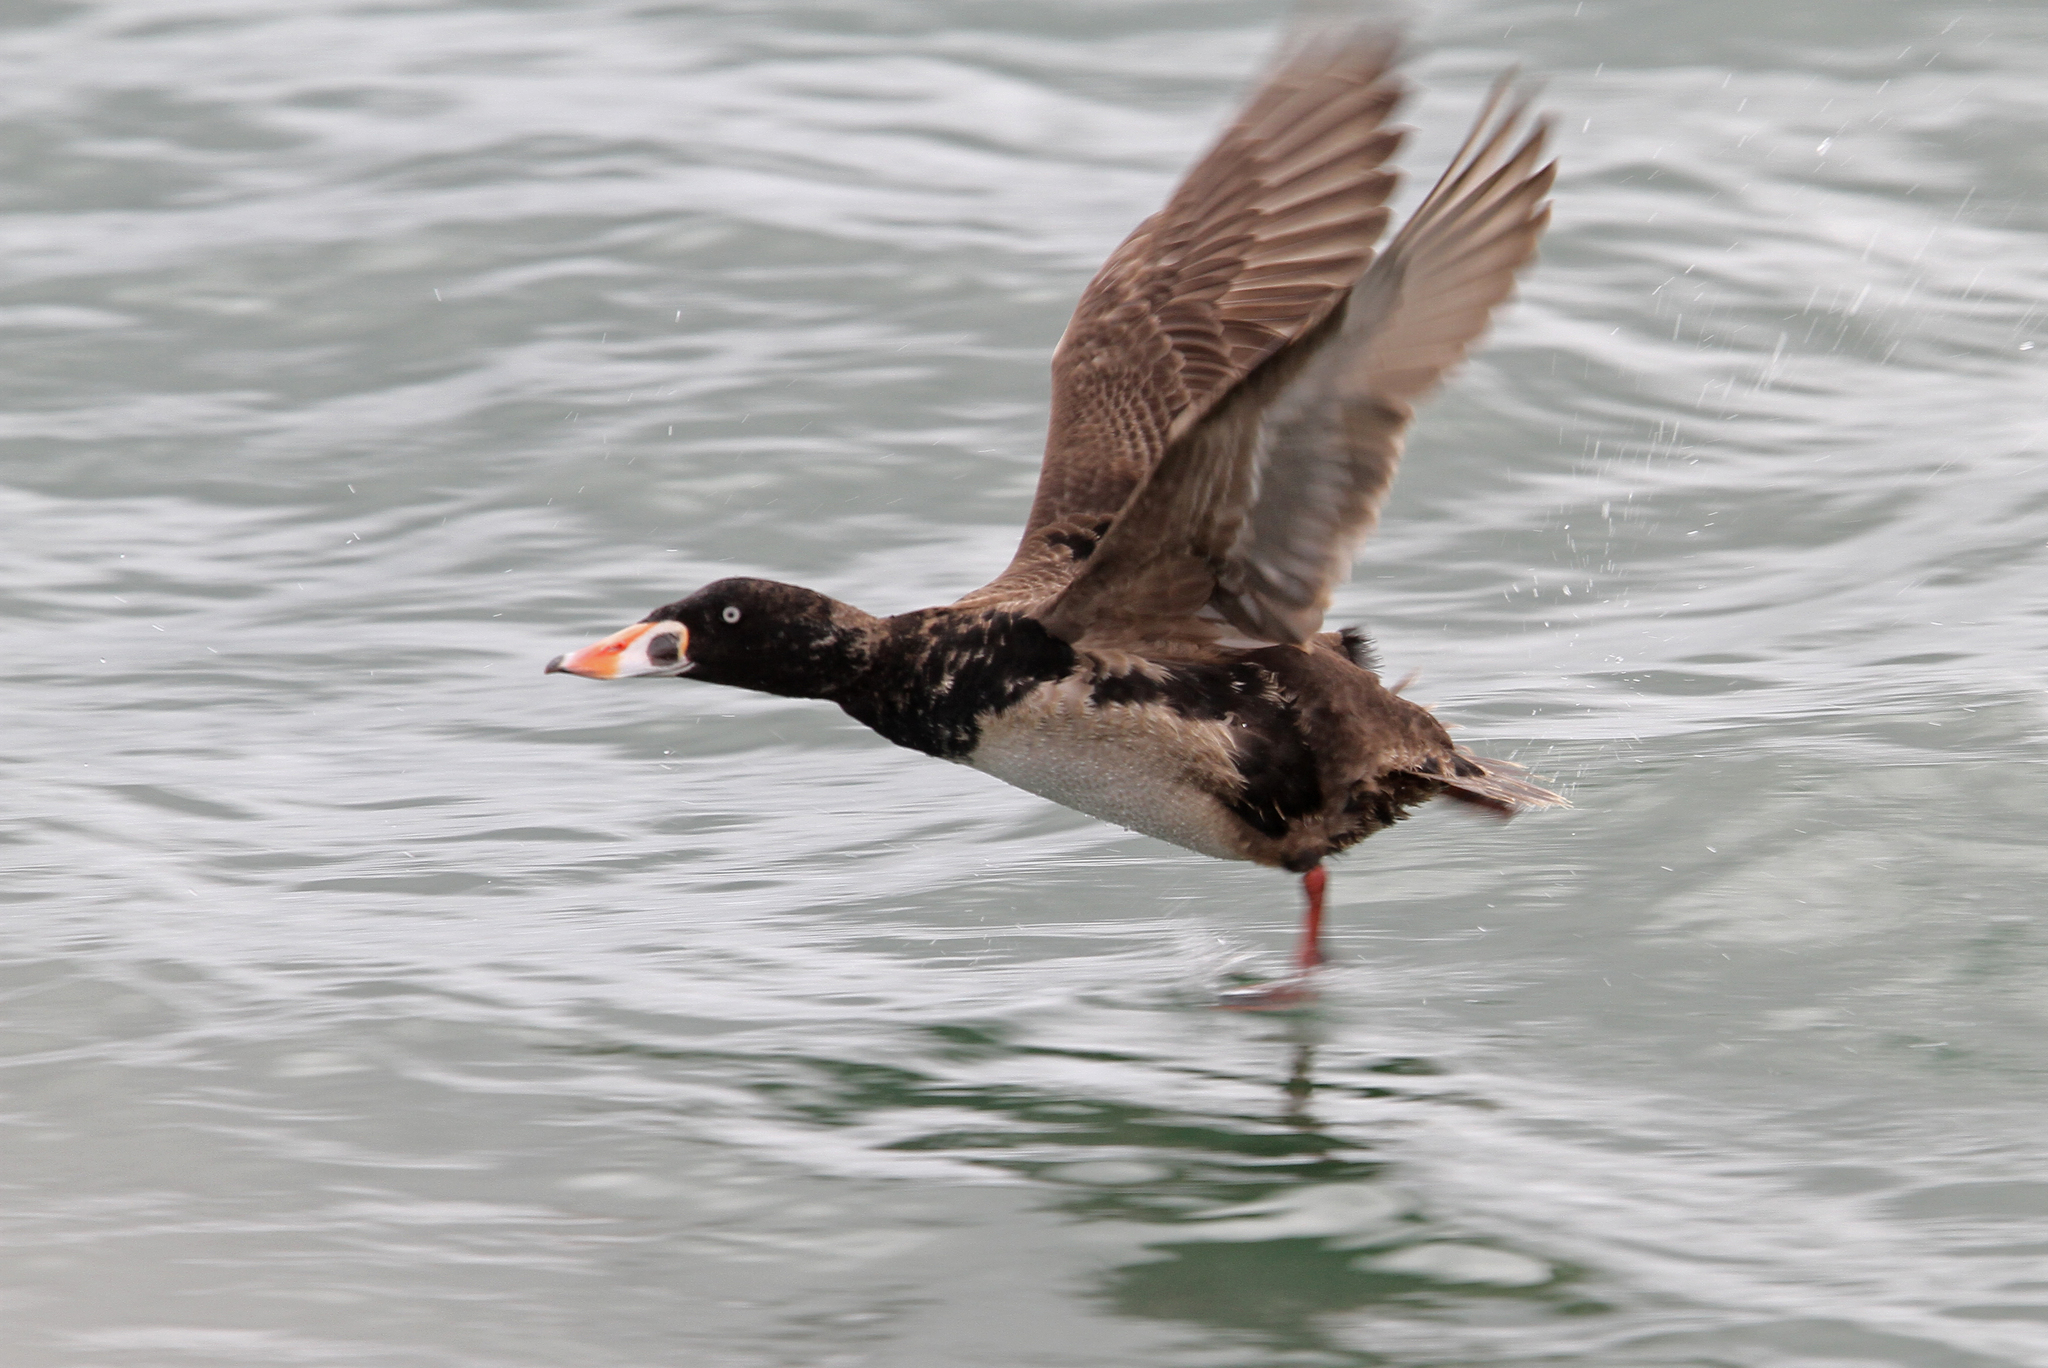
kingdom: Animalia
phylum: Chordata
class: Aves
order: Anseriformes
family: Anatidae
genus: Melanitta
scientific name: Melanitta perspicillata
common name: Surf scoter
